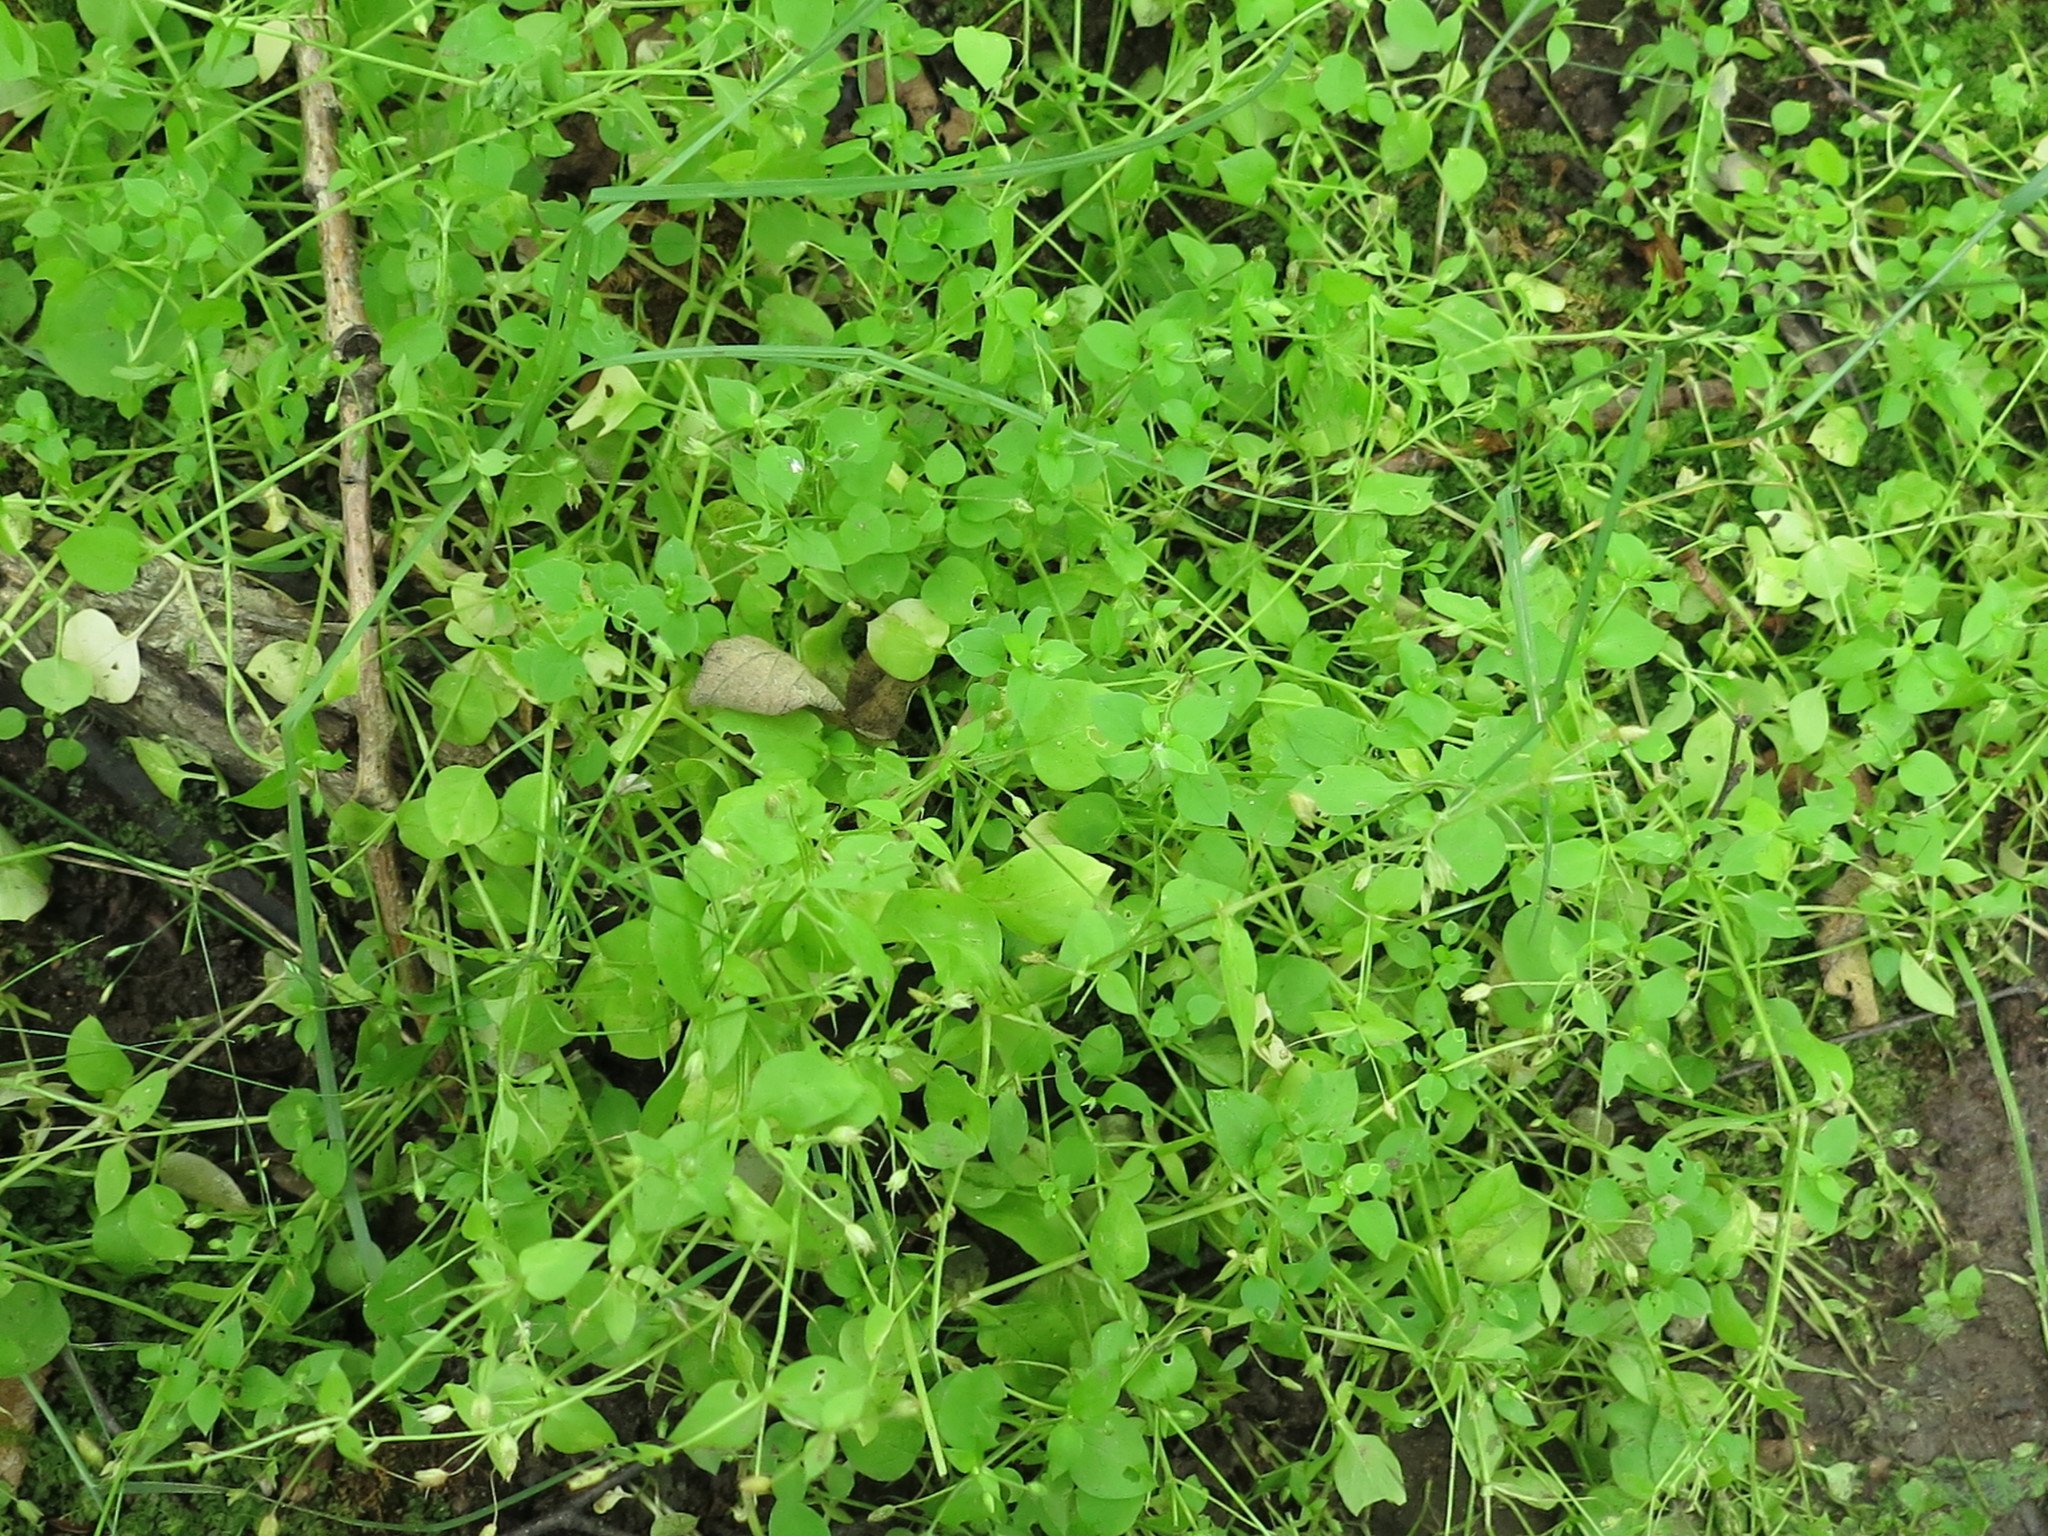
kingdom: Plantae
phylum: Tracheophyta
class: Magnoliopsida
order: Caryophyllales
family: Caryophyllaceae
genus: Stellaria
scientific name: Stellaria media
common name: Common chickweed
